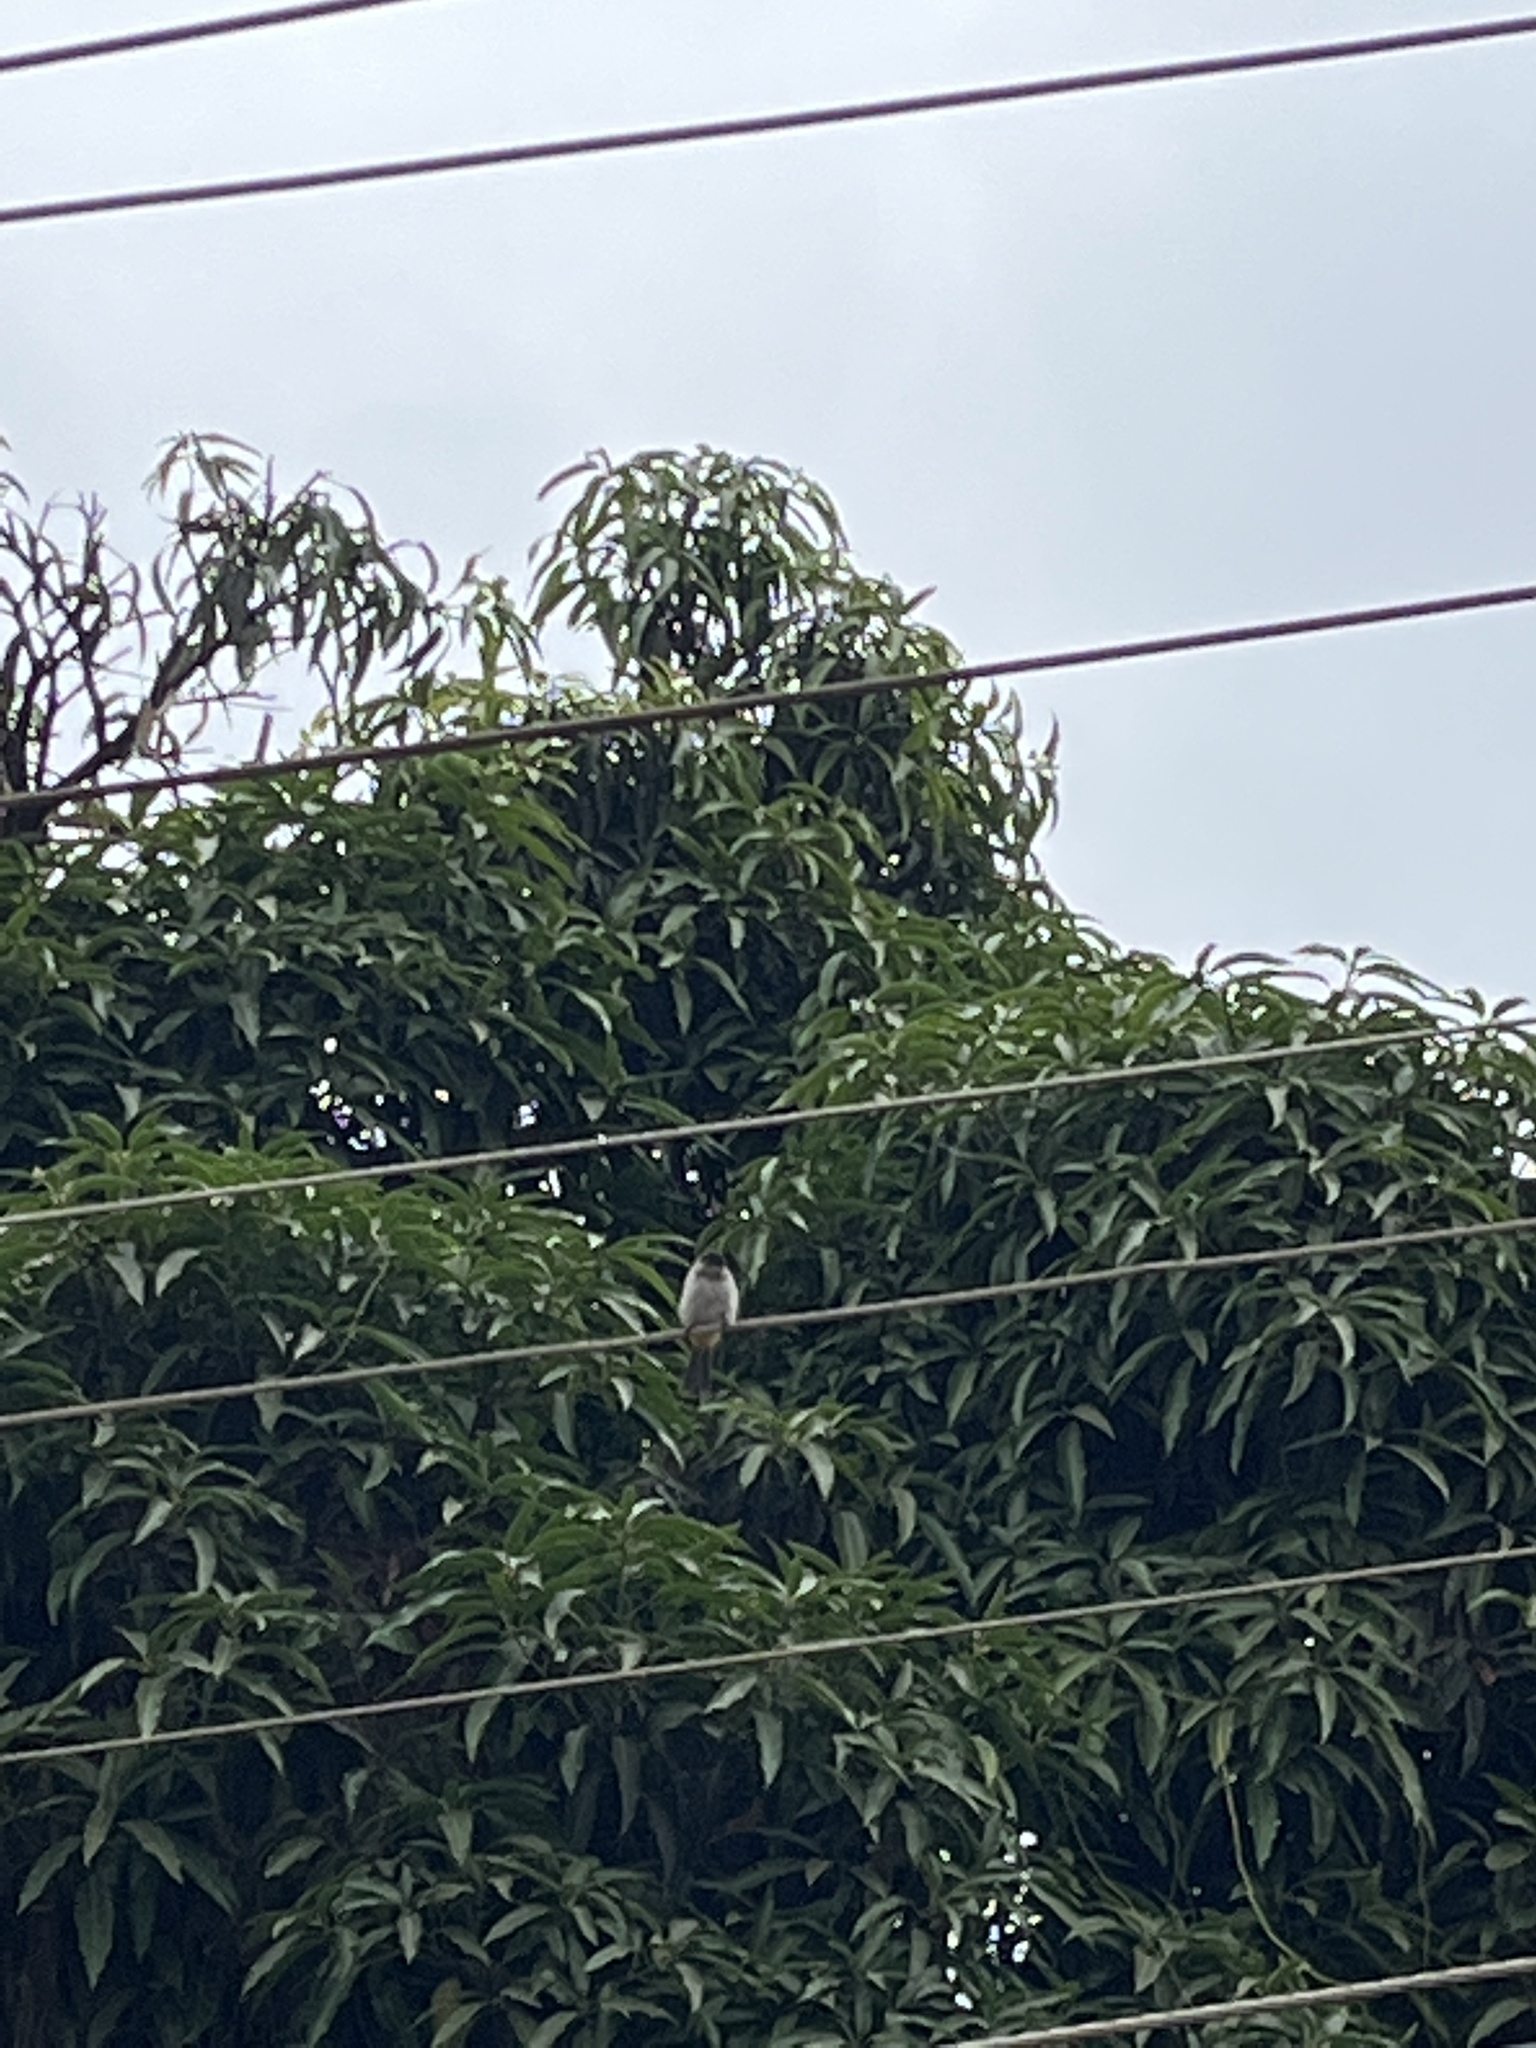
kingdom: Animalia
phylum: Chordata
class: Aves
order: Passeriformes
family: Pycnonotidae
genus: Pycnonotus
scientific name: Pycnonotus barbatus
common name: Common bulbul
